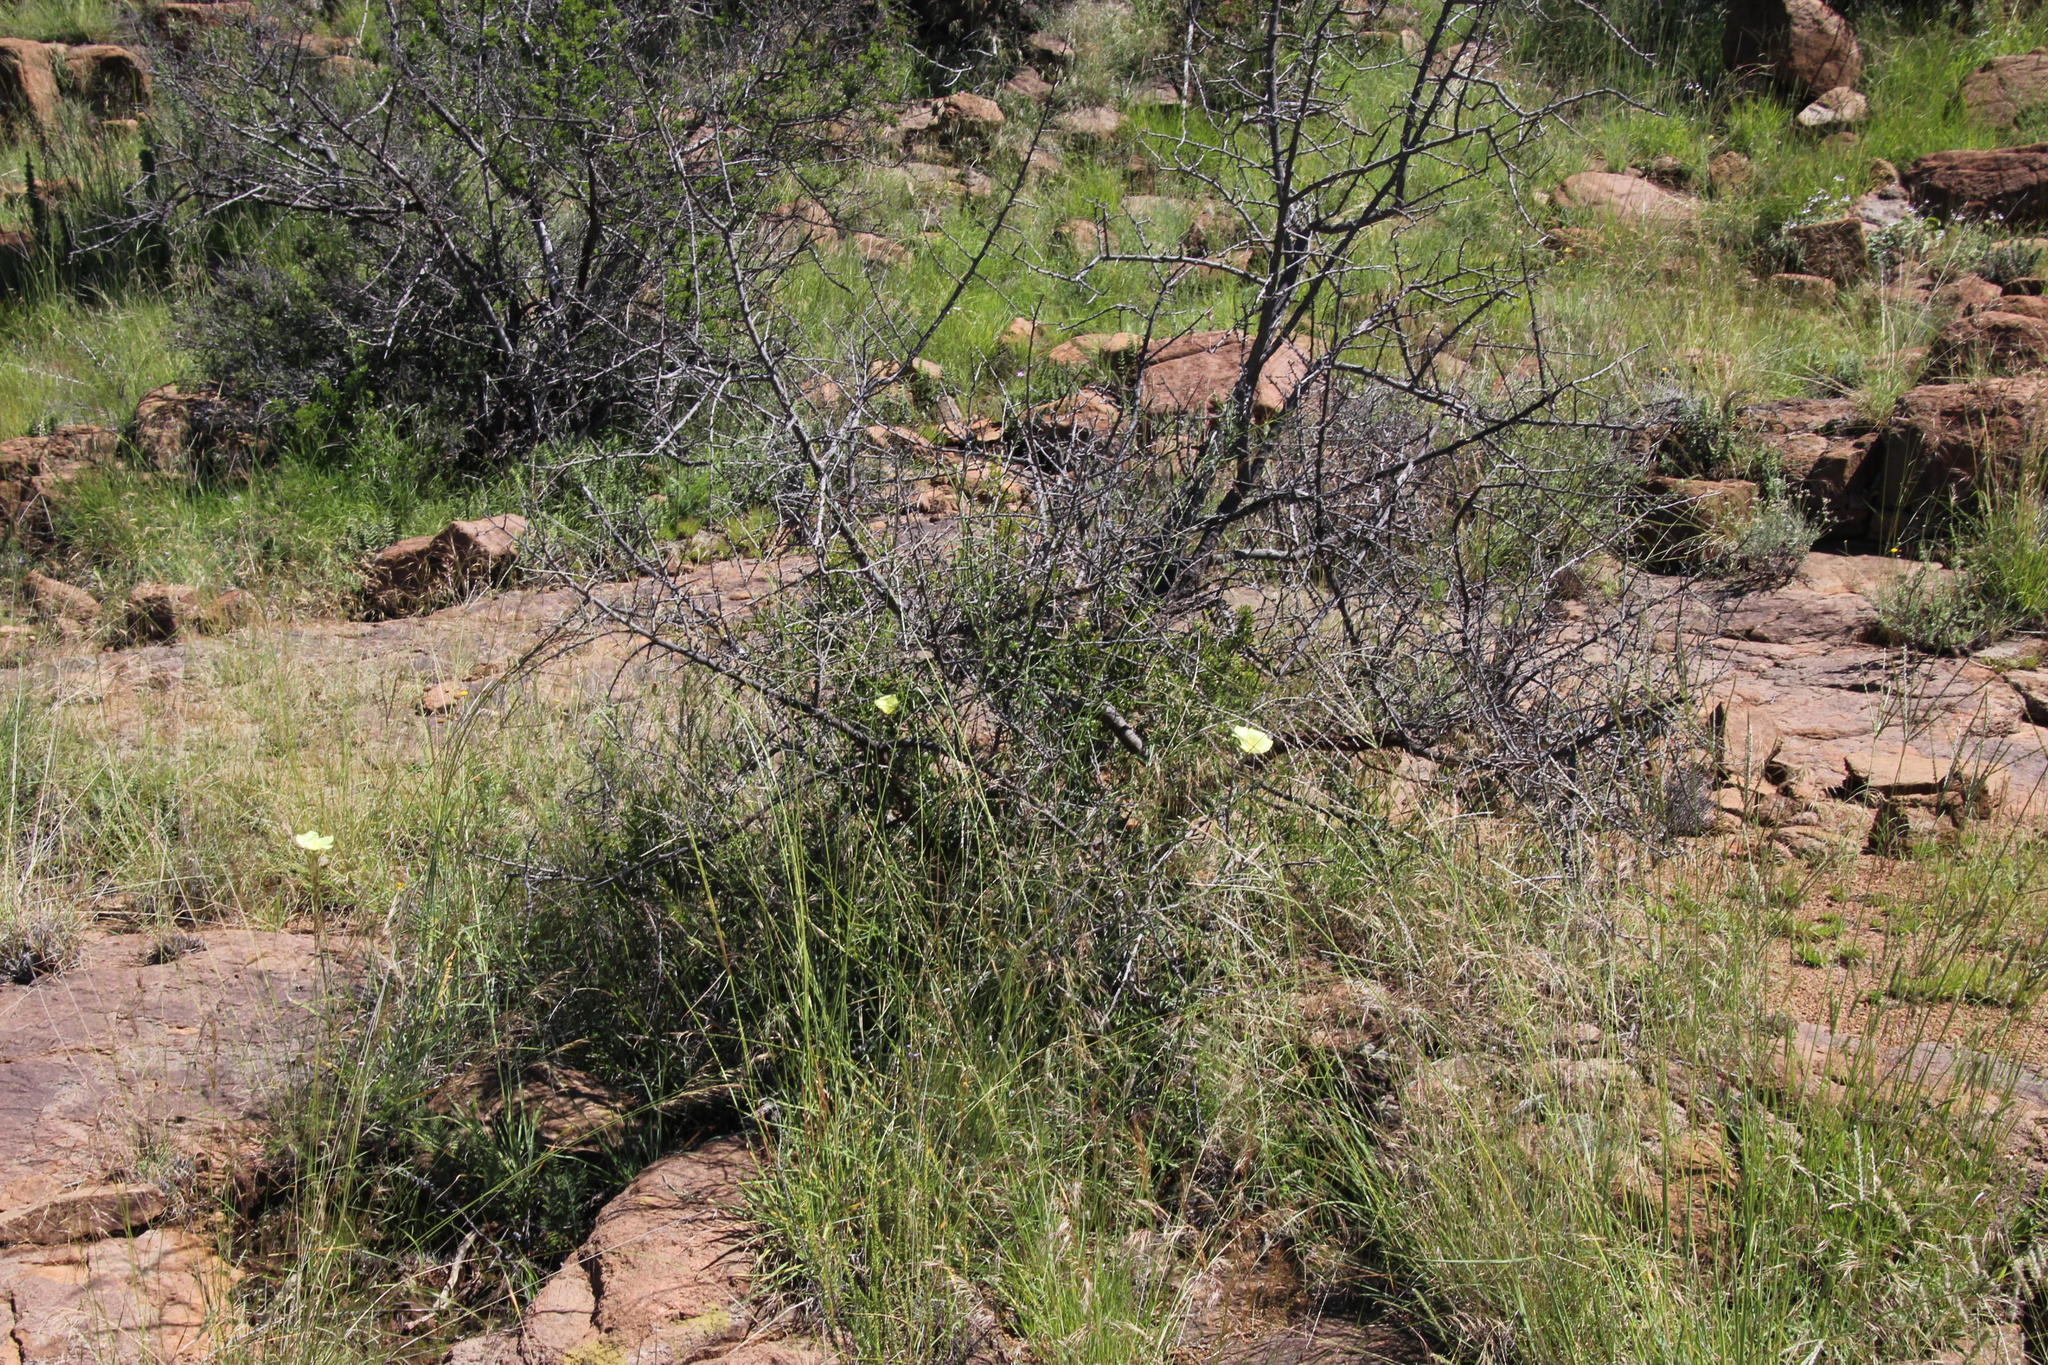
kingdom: Plantae
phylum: Tracheophyta
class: Magnoliopsida
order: Malvales
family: Malvaceae
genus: Hibiscus
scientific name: Hibiscus pusillus
